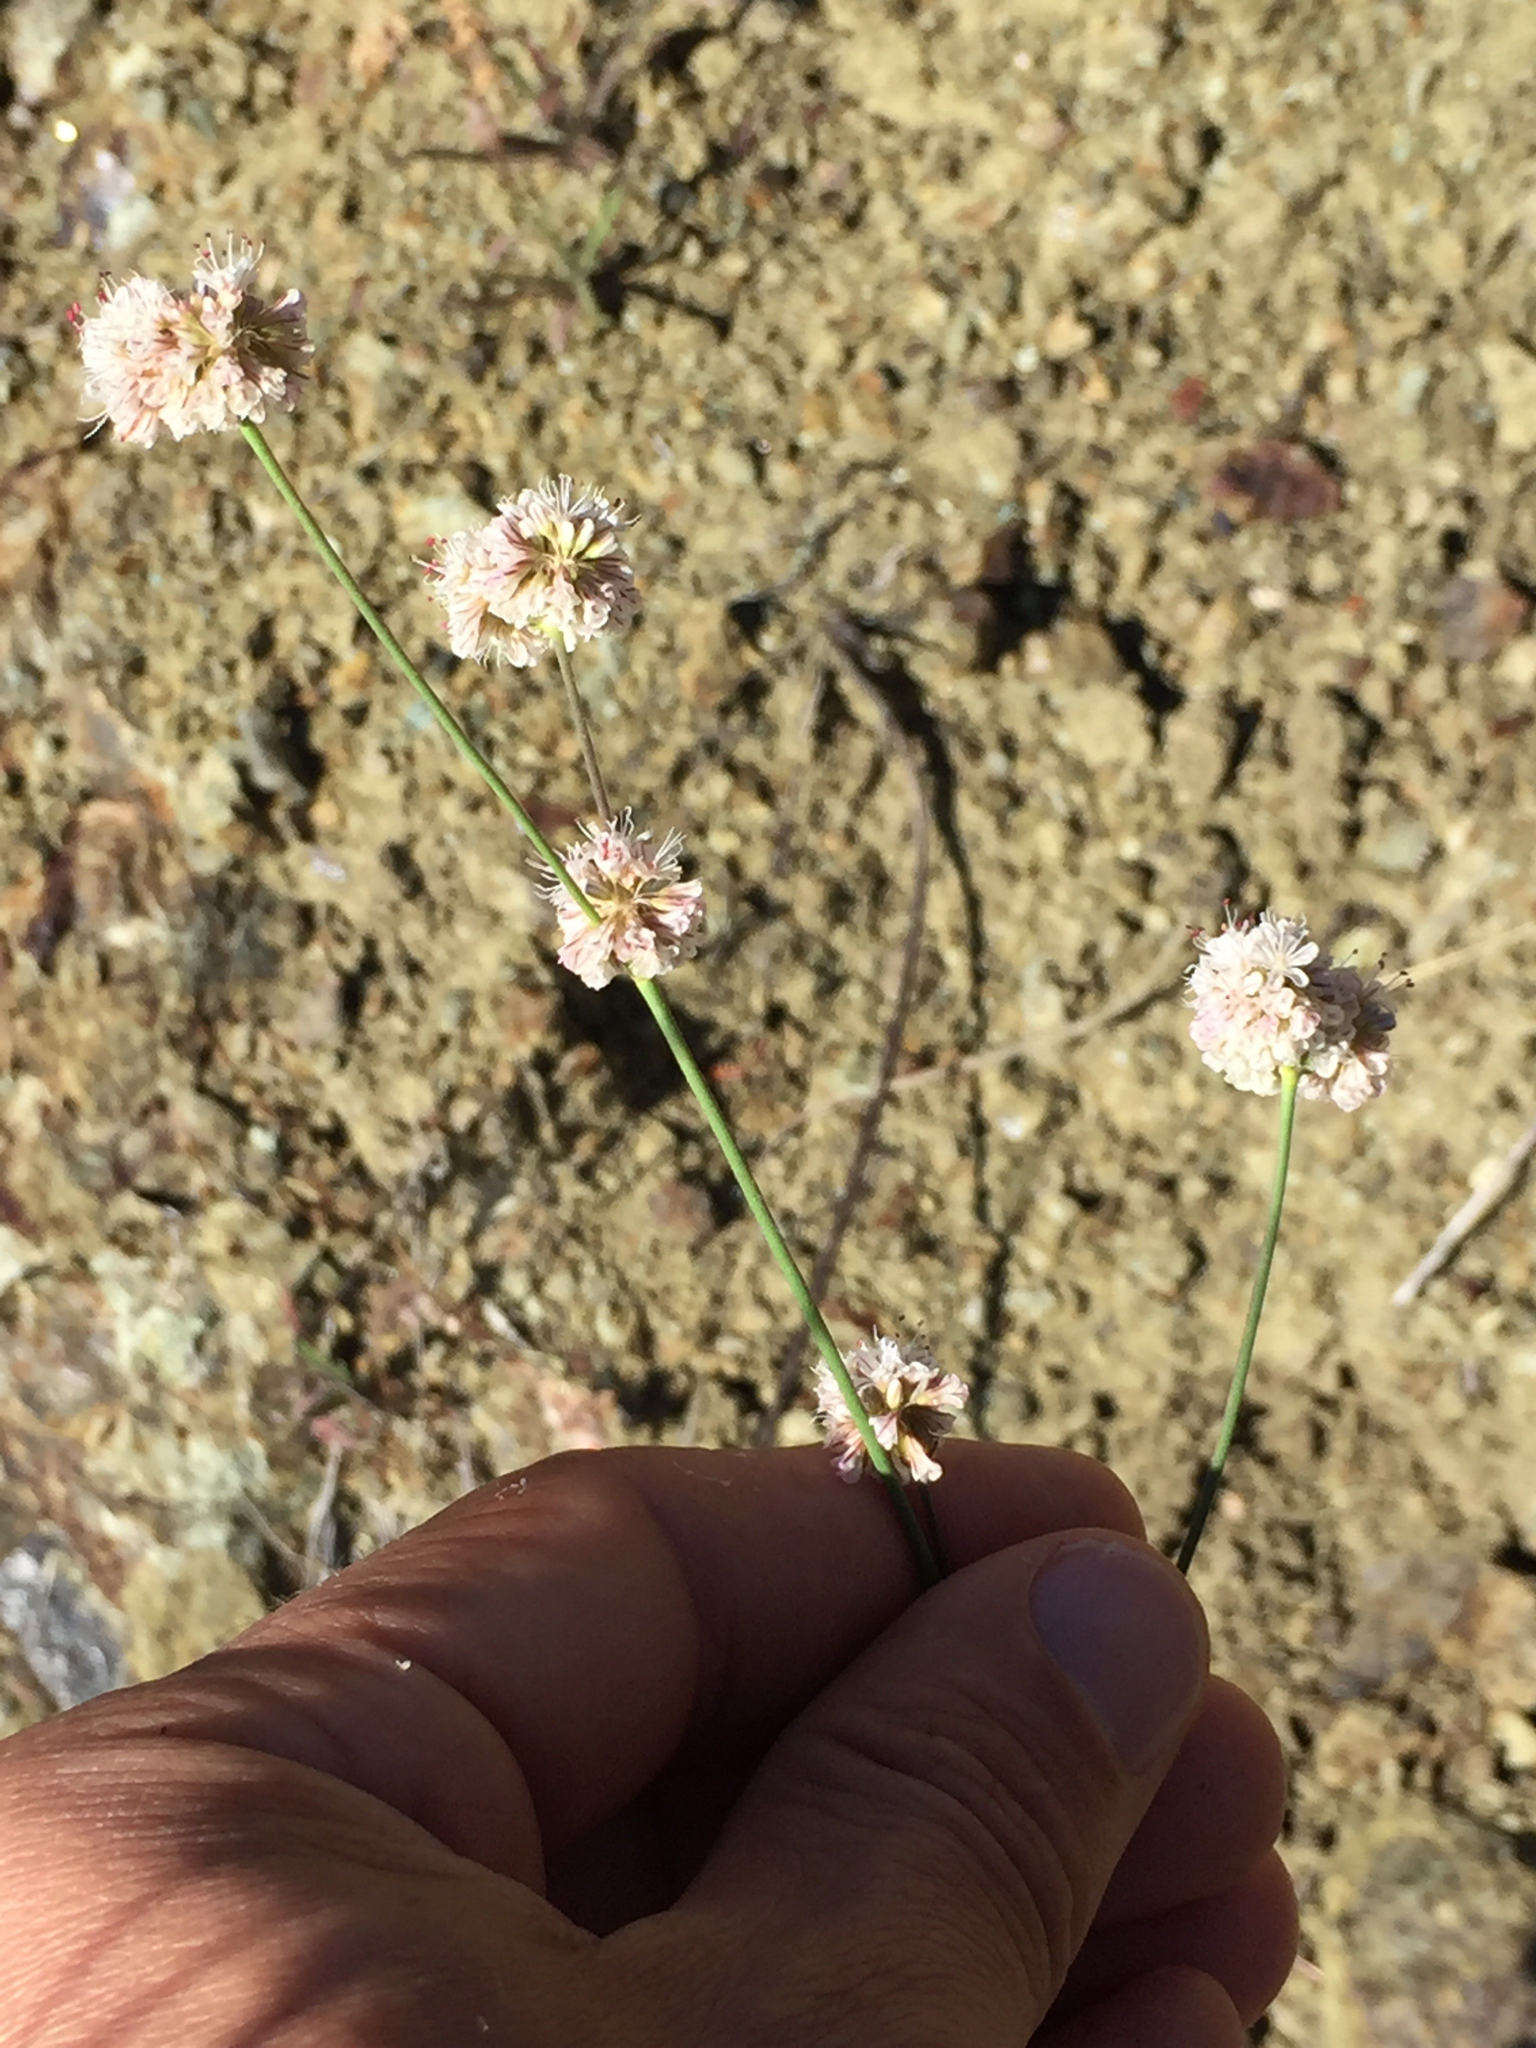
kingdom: Plantae
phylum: Tracheophyta
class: Magnoliopsida
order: Caryophyllales
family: Polygonaceae
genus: Eriogonum
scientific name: Eriogonum nudum
